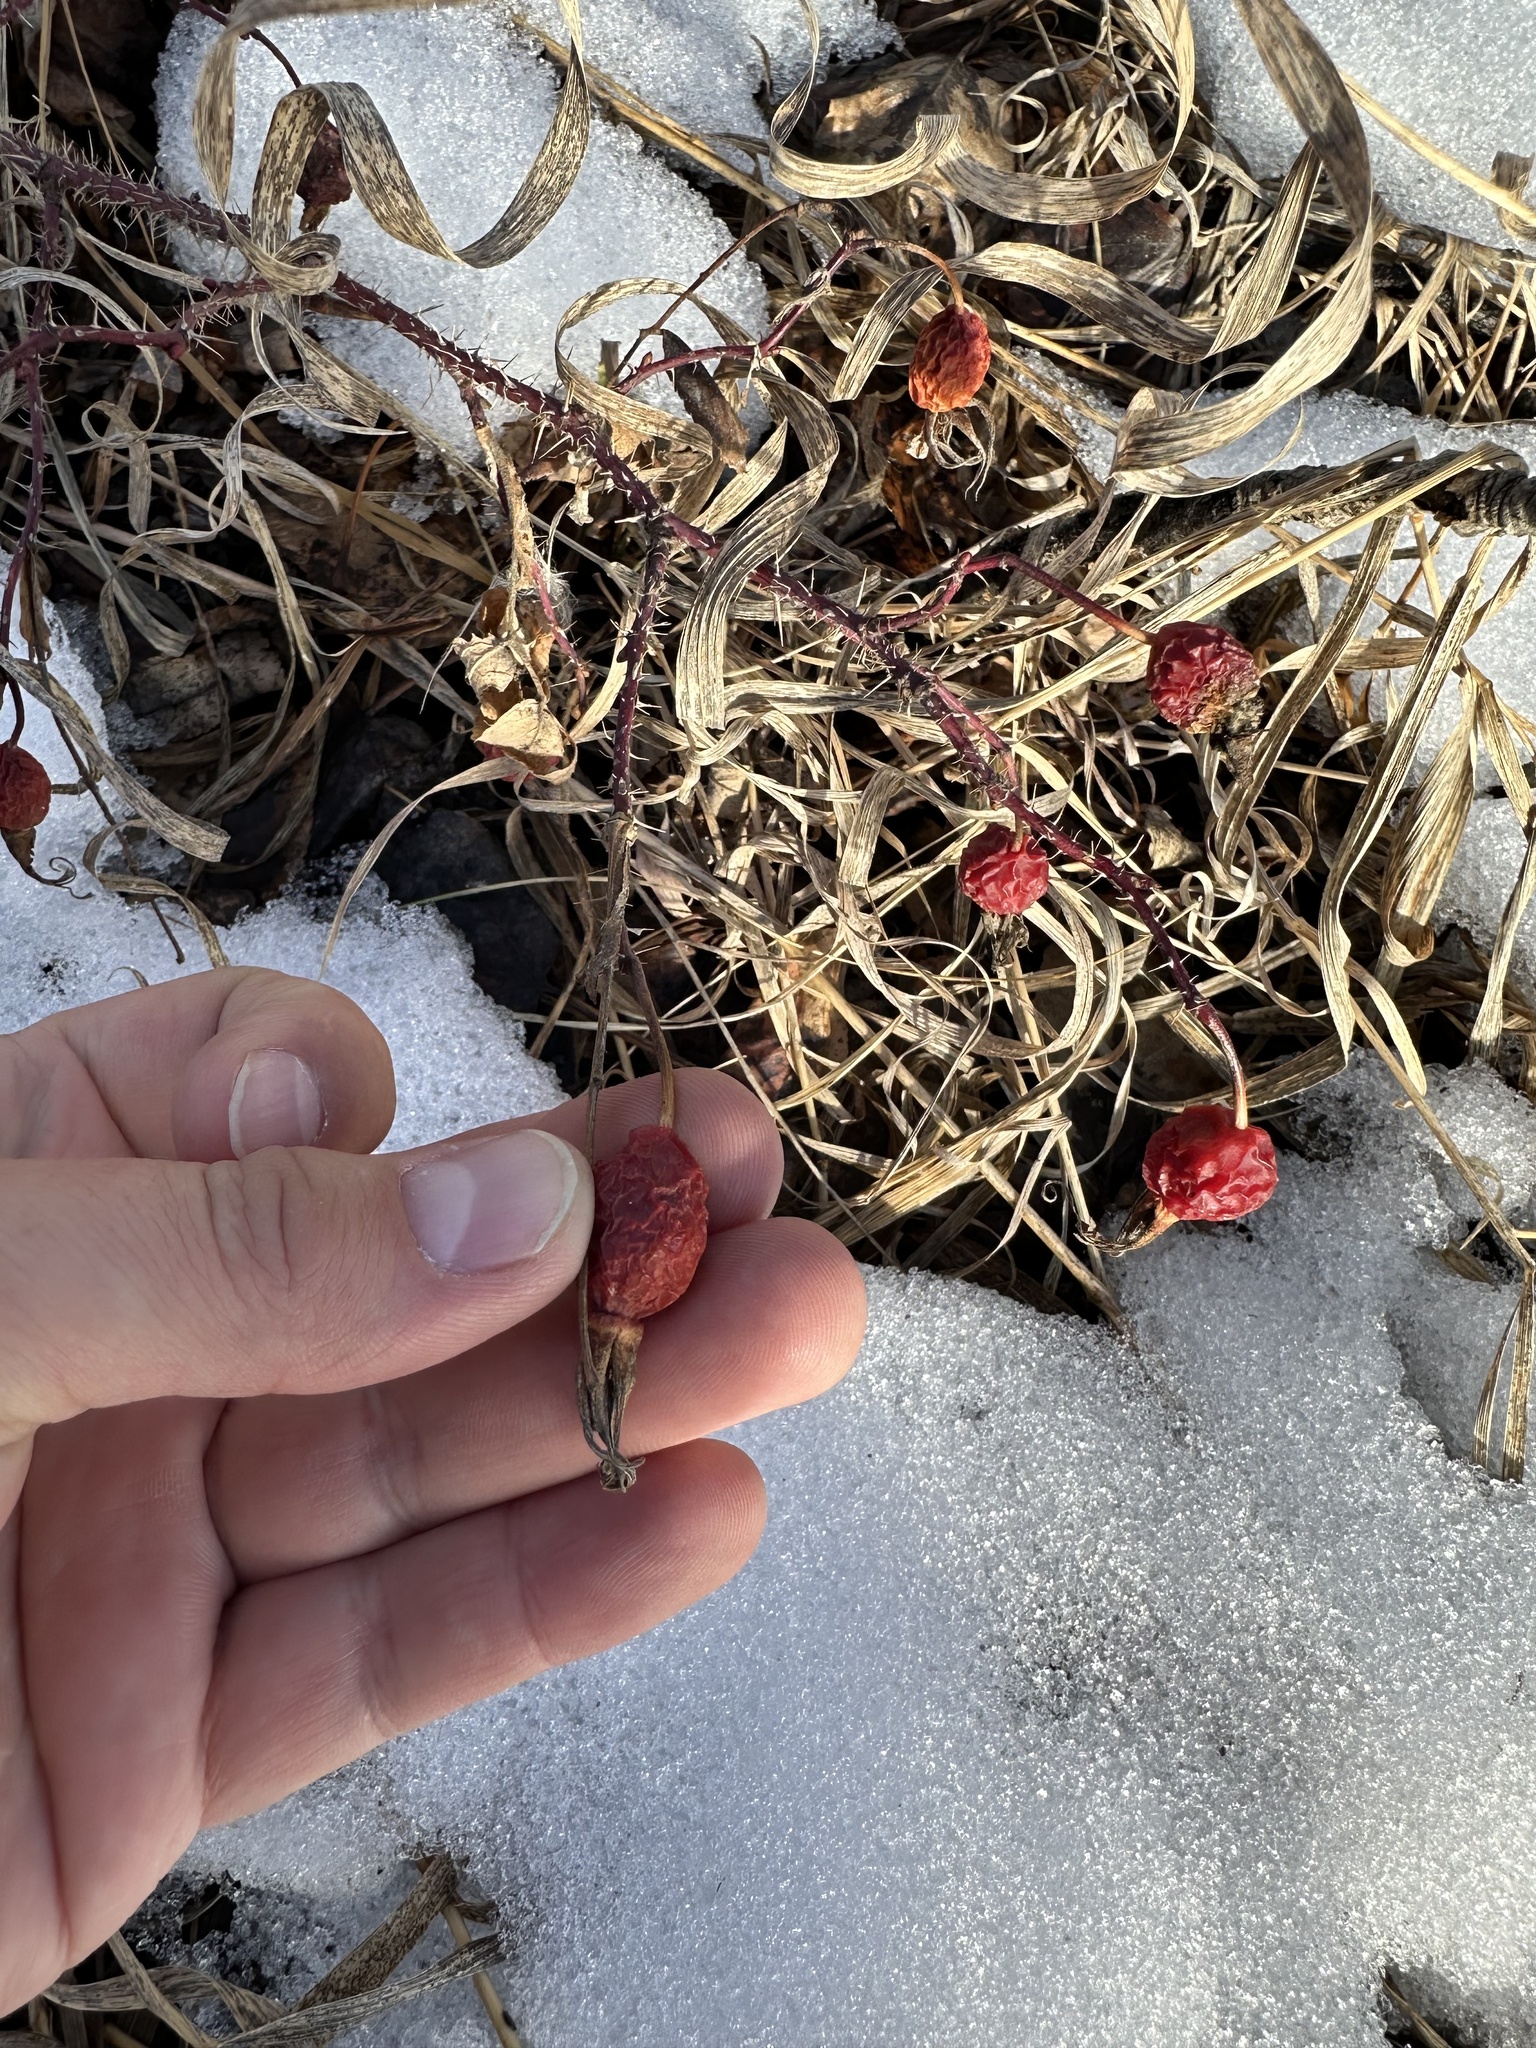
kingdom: Plantae
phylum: Tracheophyta
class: Magnoliopsida
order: Rosales
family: Rosaceae
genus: Rosa
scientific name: Rosa acicularis
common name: Prickly rose
